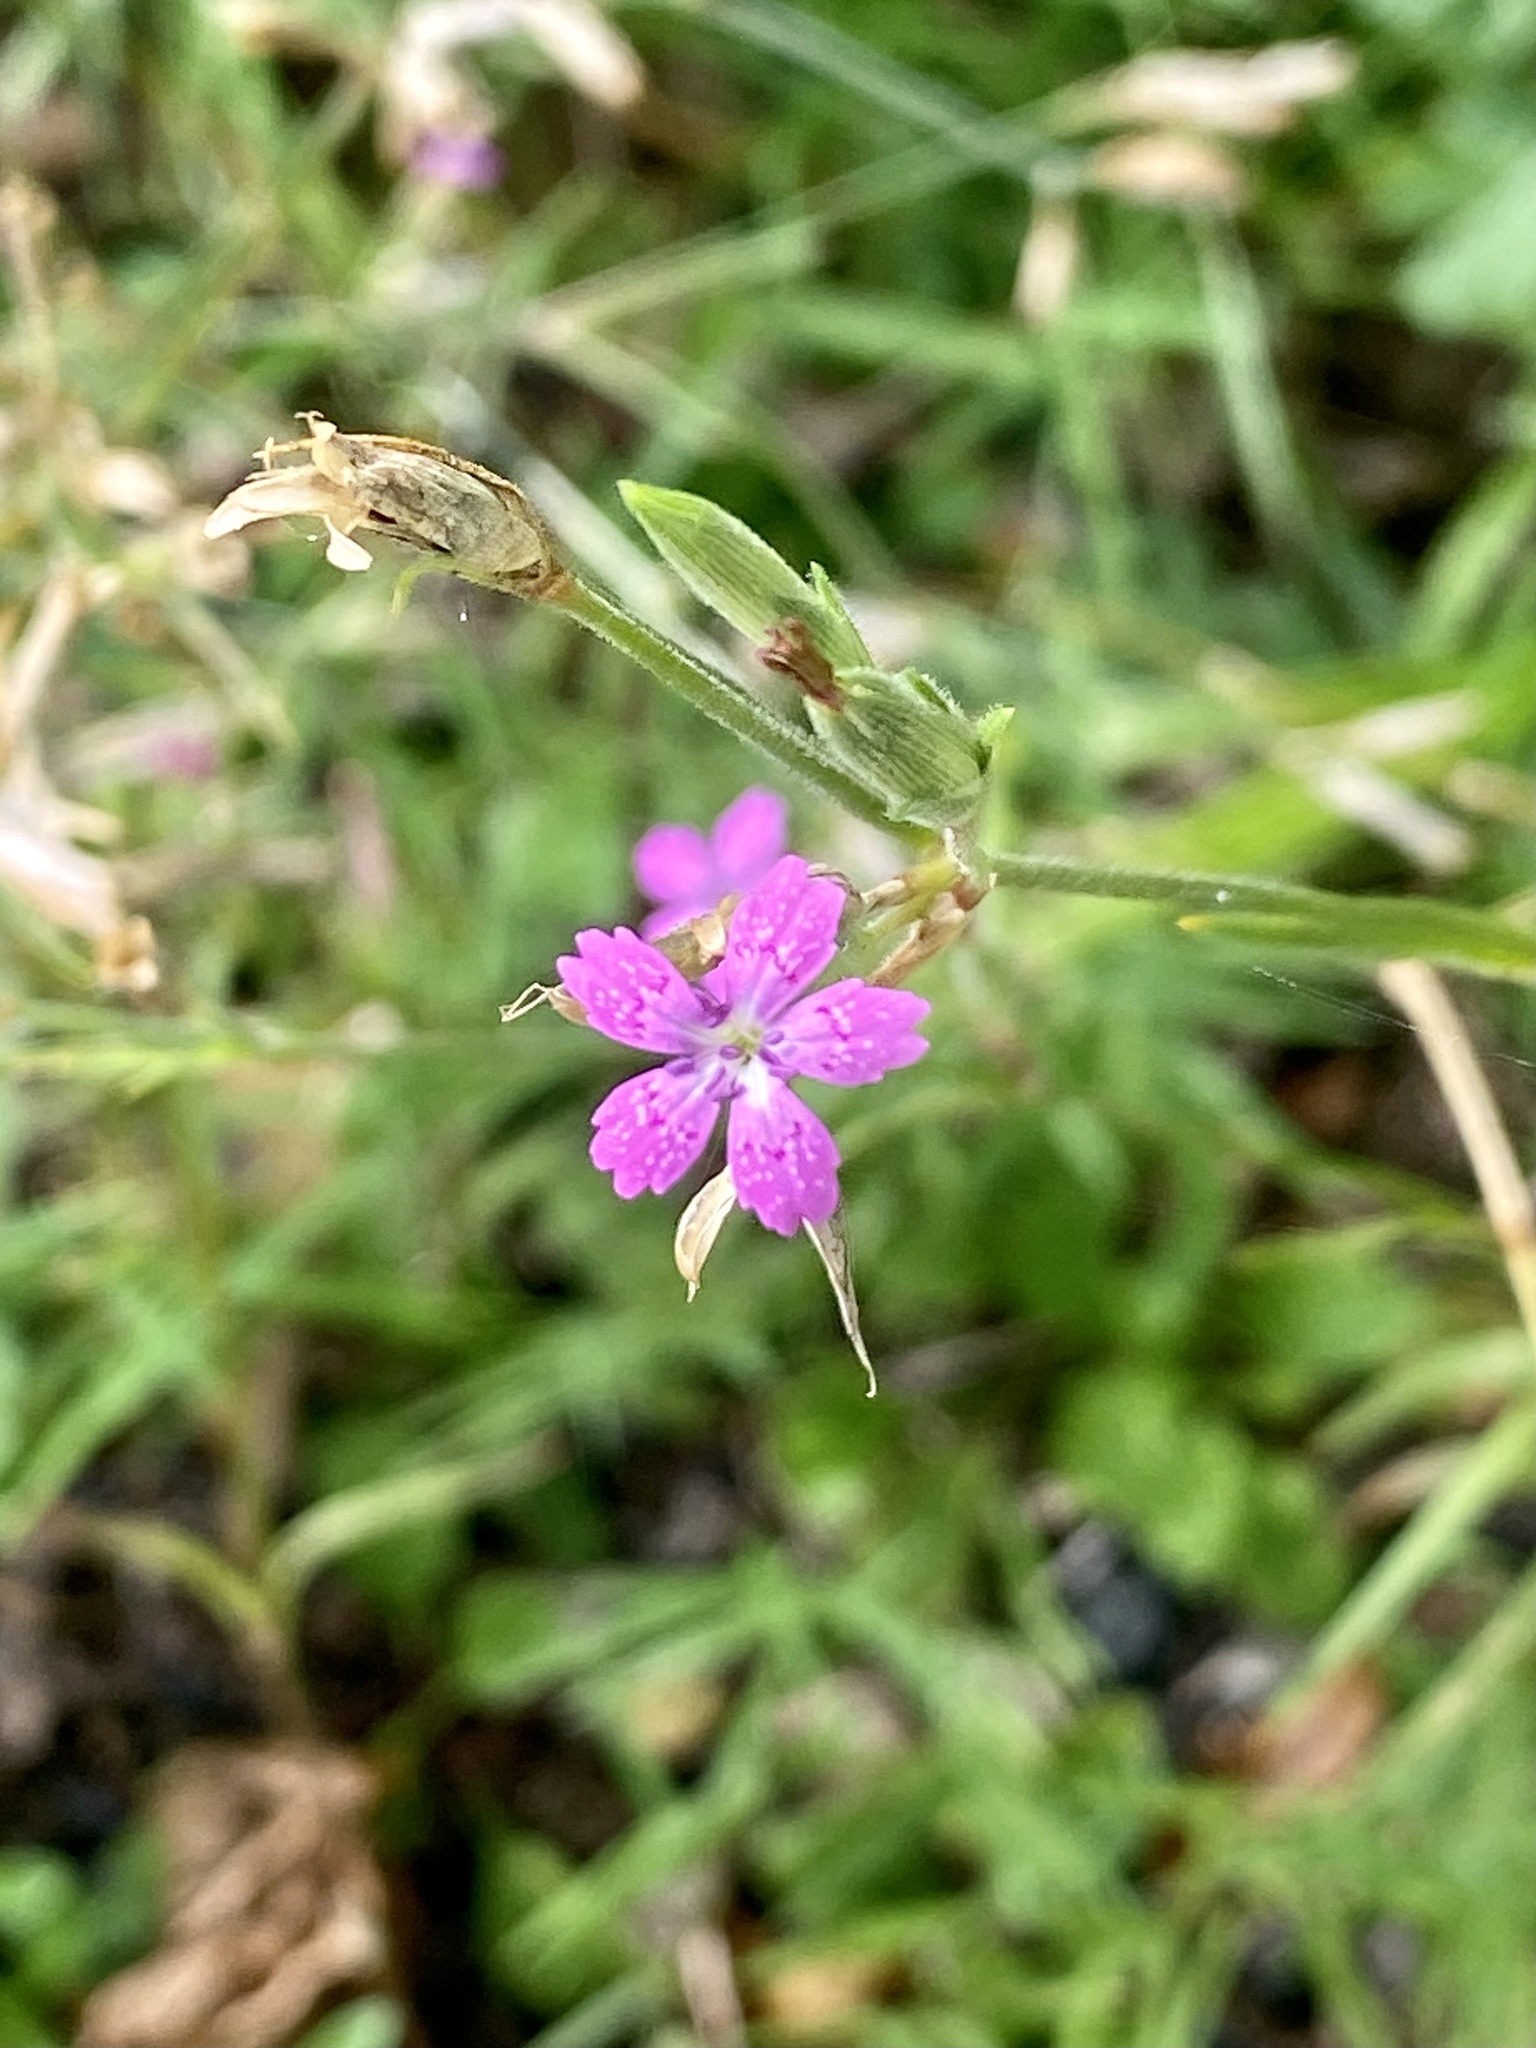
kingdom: Plantae
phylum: Tracheophyta
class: Magnoliopsida
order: Caryophyllales
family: Caryophyllaceae
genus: Dianthus
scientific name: Dianthus armeria
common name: Deptford pink
